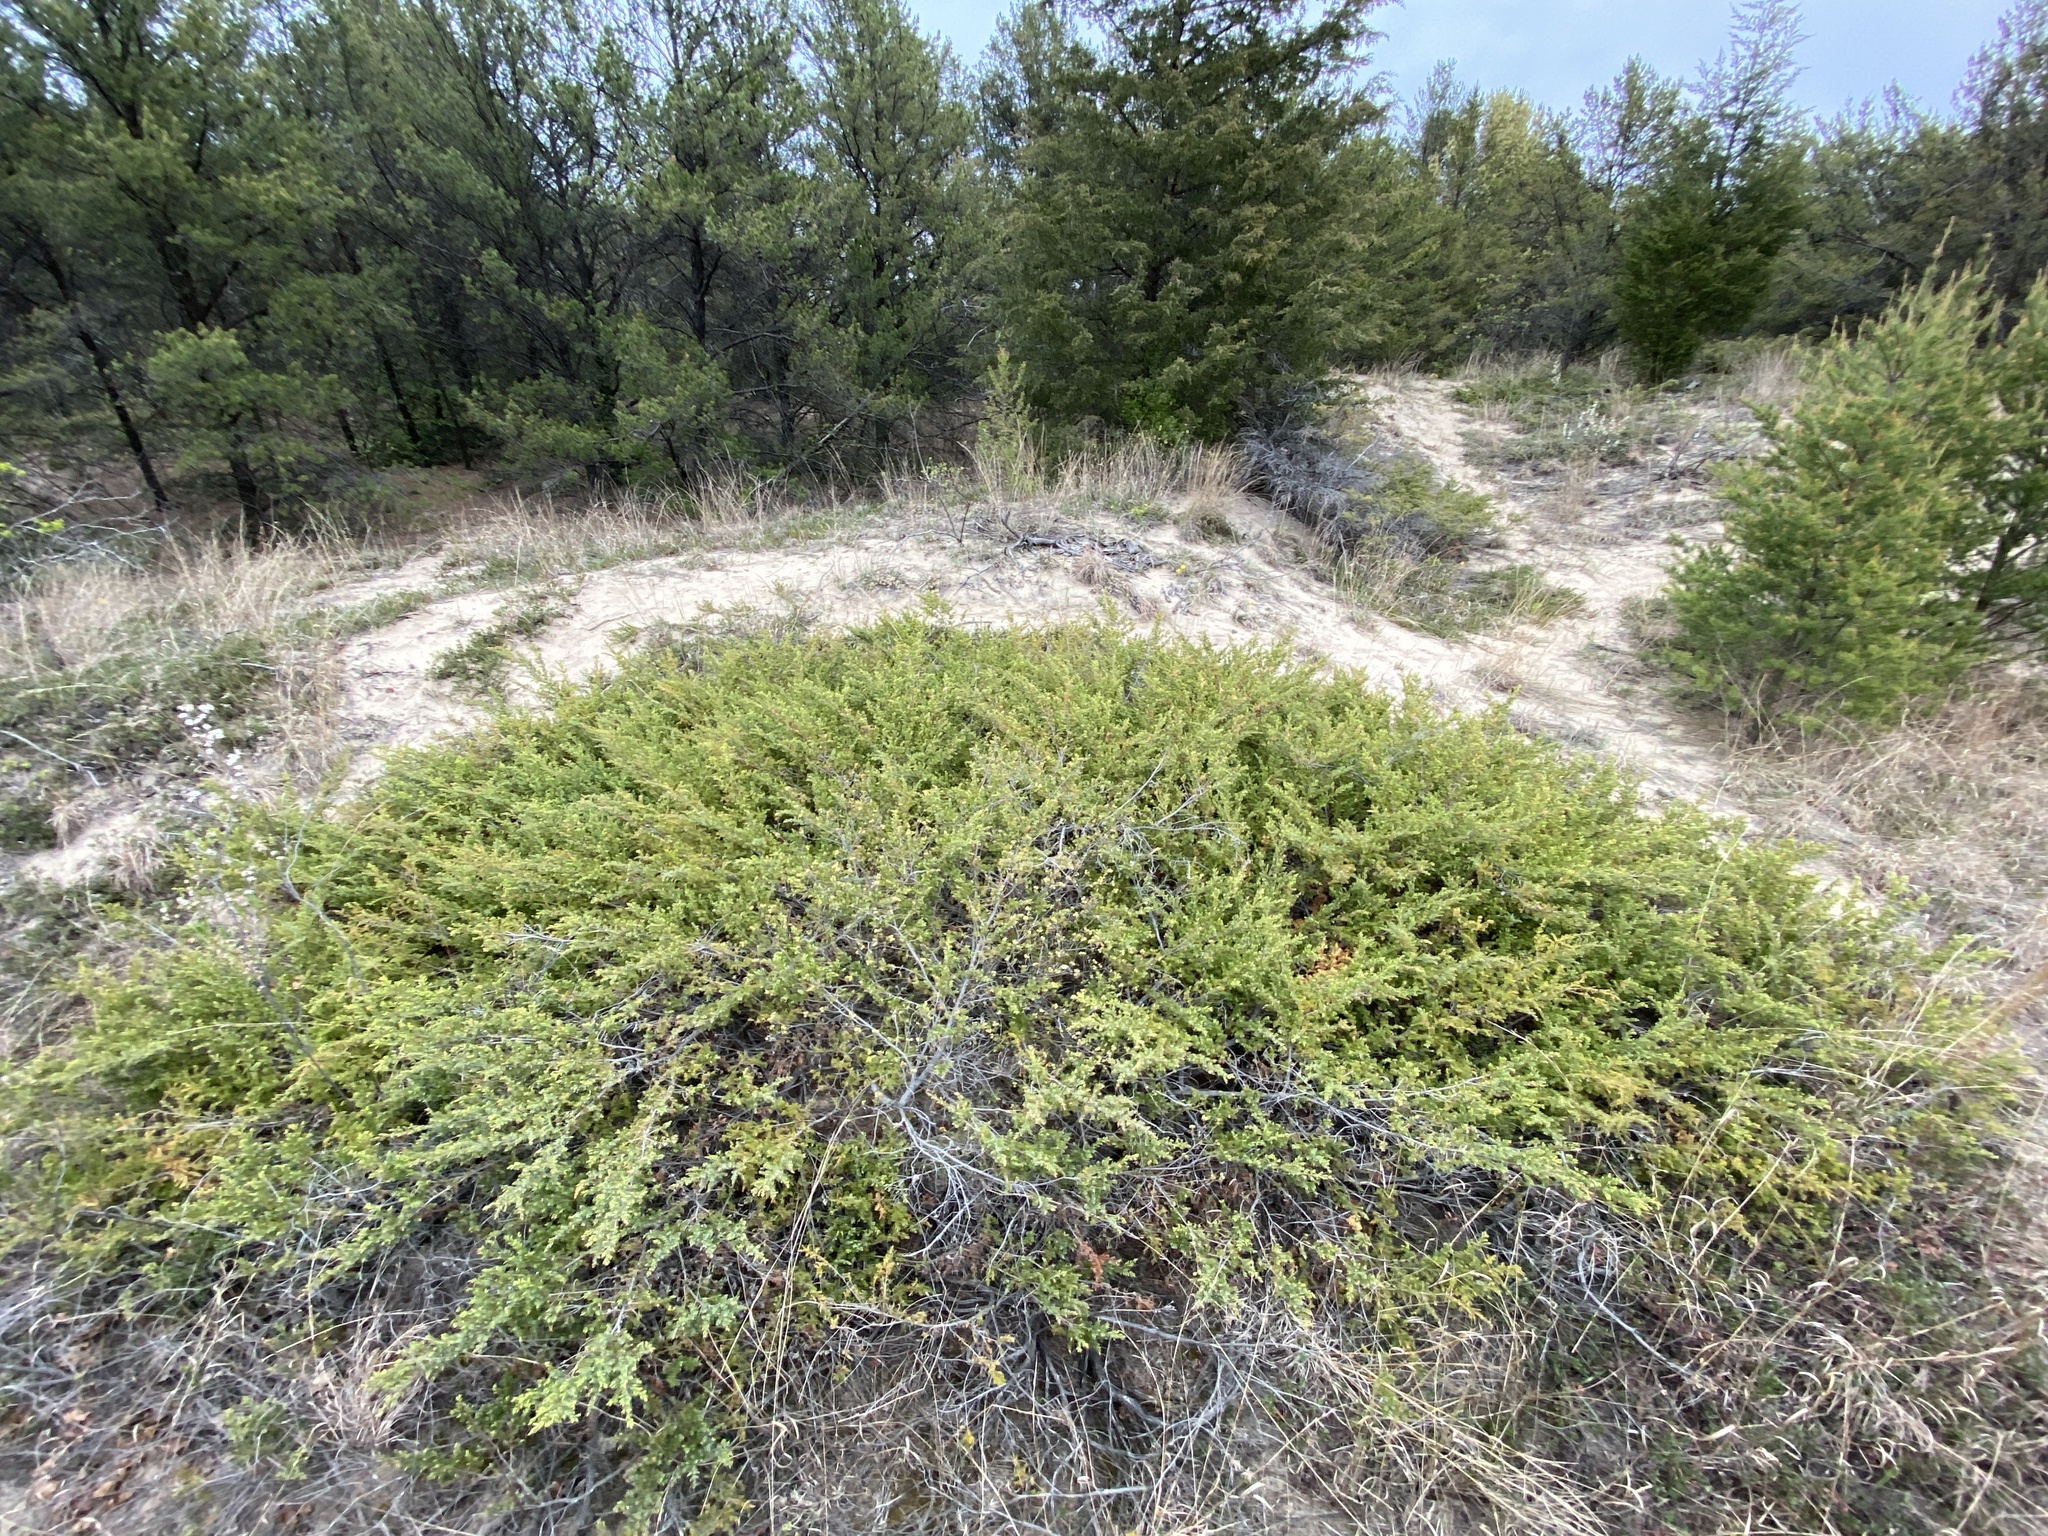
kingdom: Plantae
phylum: Tracheophyta
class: Pinopsida
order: Pinales
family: Cupressaceae
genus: Juniperus
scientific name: Juniperus communis
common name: Common juniper
